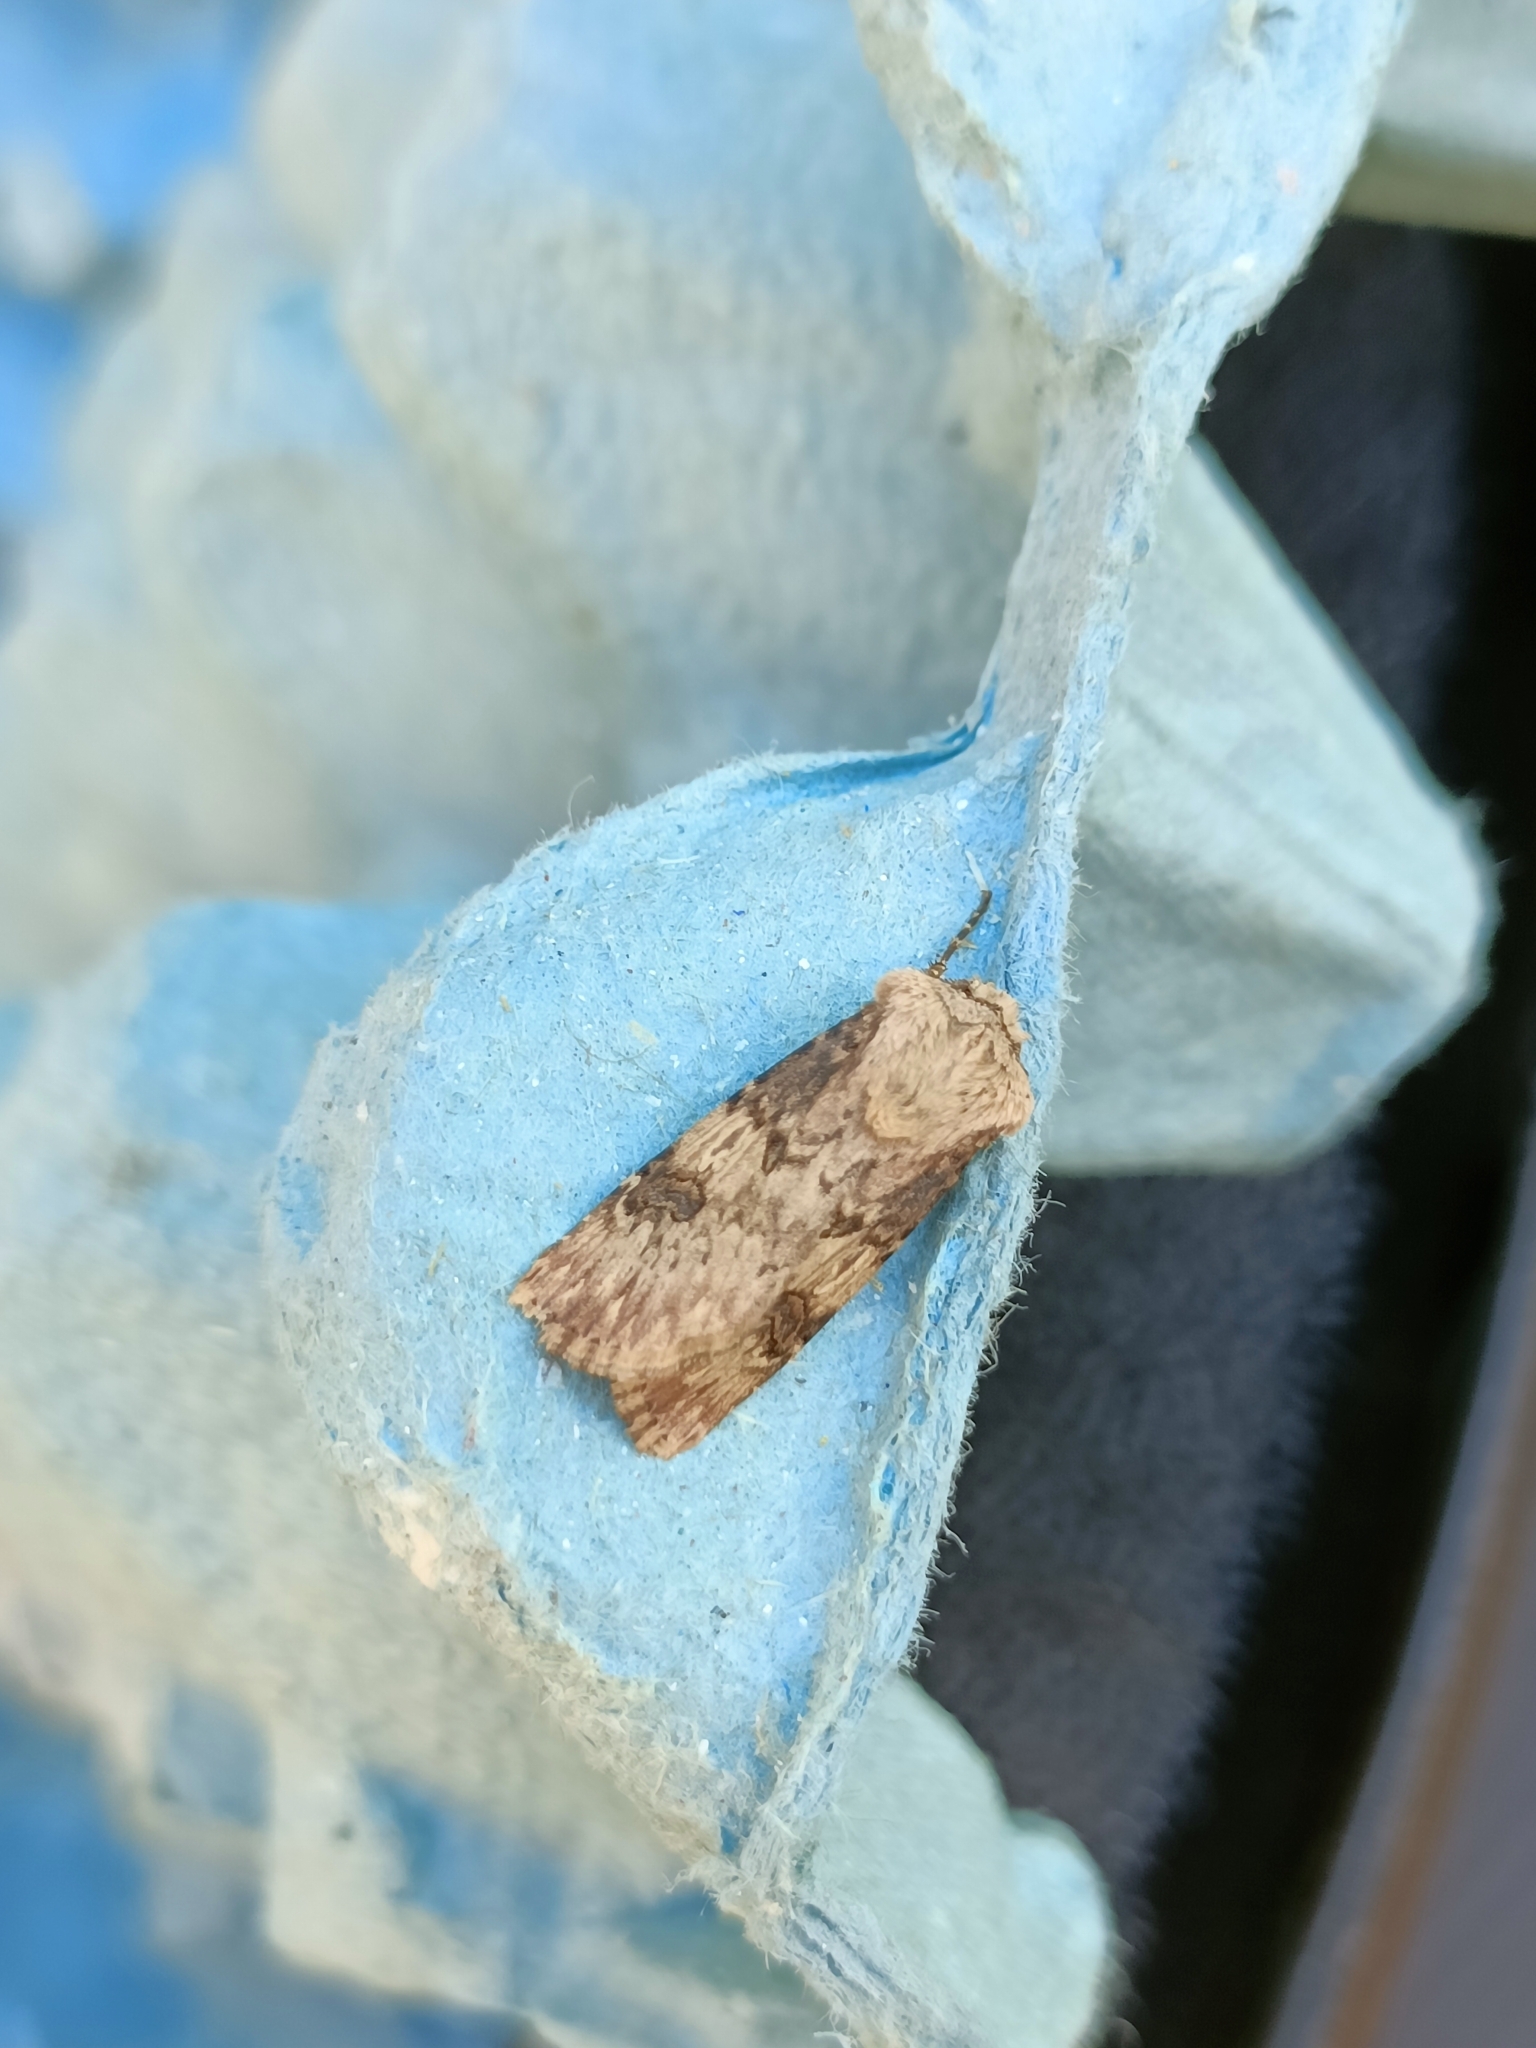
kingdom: Animalia
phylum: Arthropoda
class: Insecta
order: Lepidoptera
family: Noctuidae
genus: Agrotis
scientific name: Agrotis puta
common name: Shuttle-shaped dart
